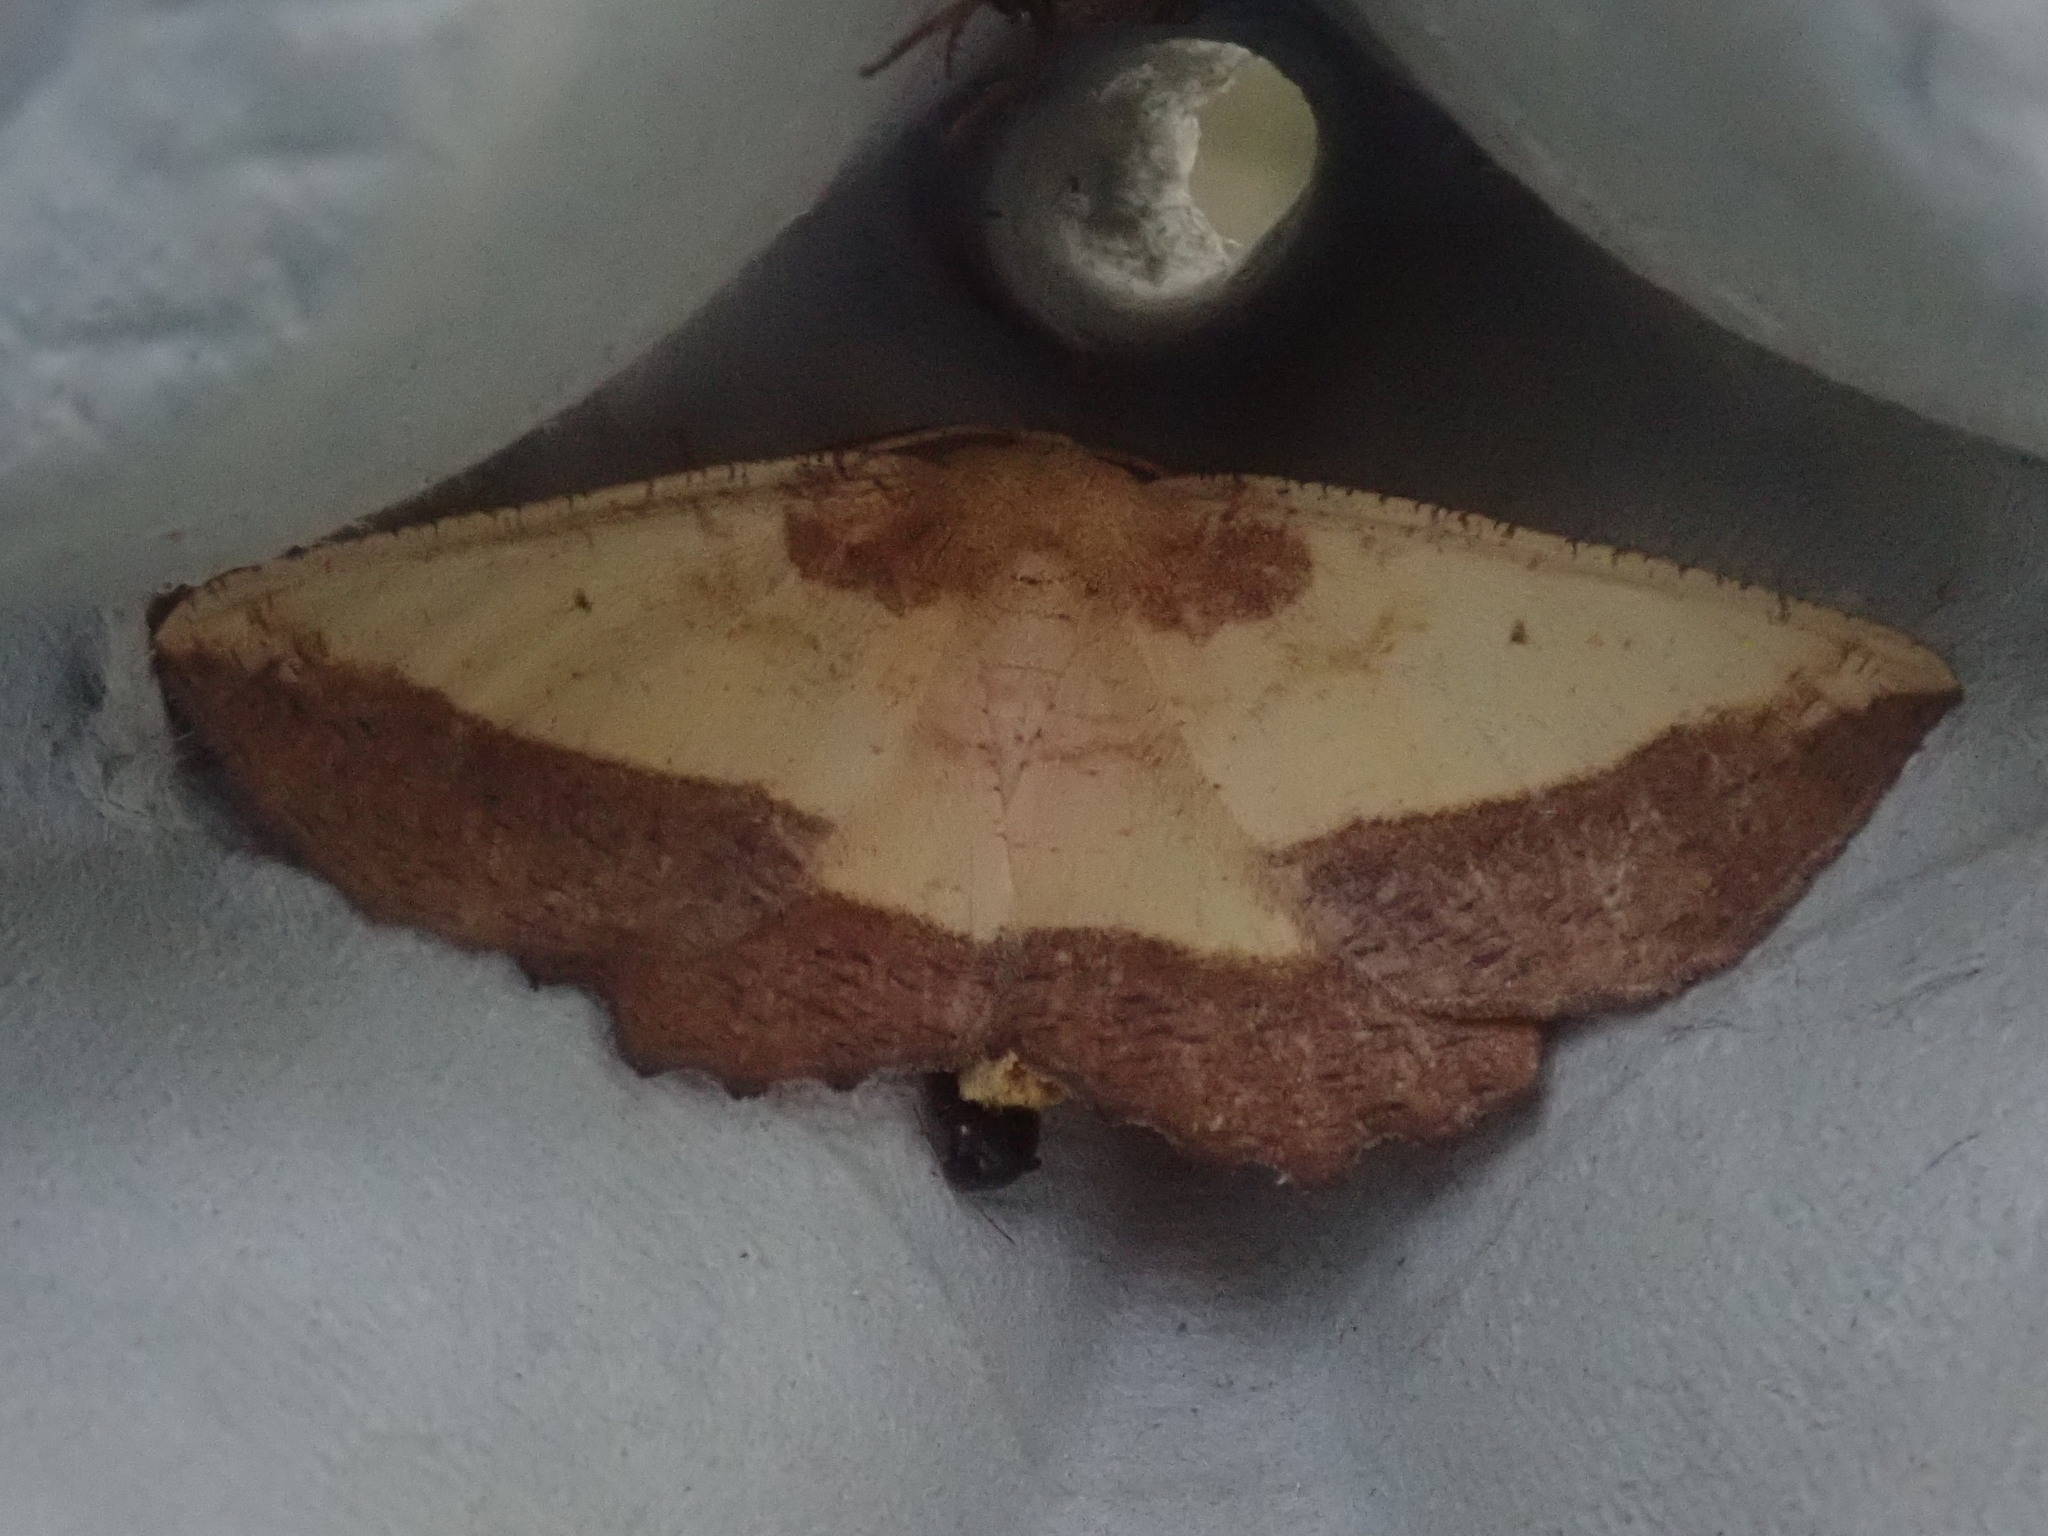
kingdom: Animalia
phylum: Arthropoda
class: Insecta
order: Lepidoptera
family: Geometridae
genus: Euchlaena
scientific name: Euchlaena serrata
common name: Saw wing
